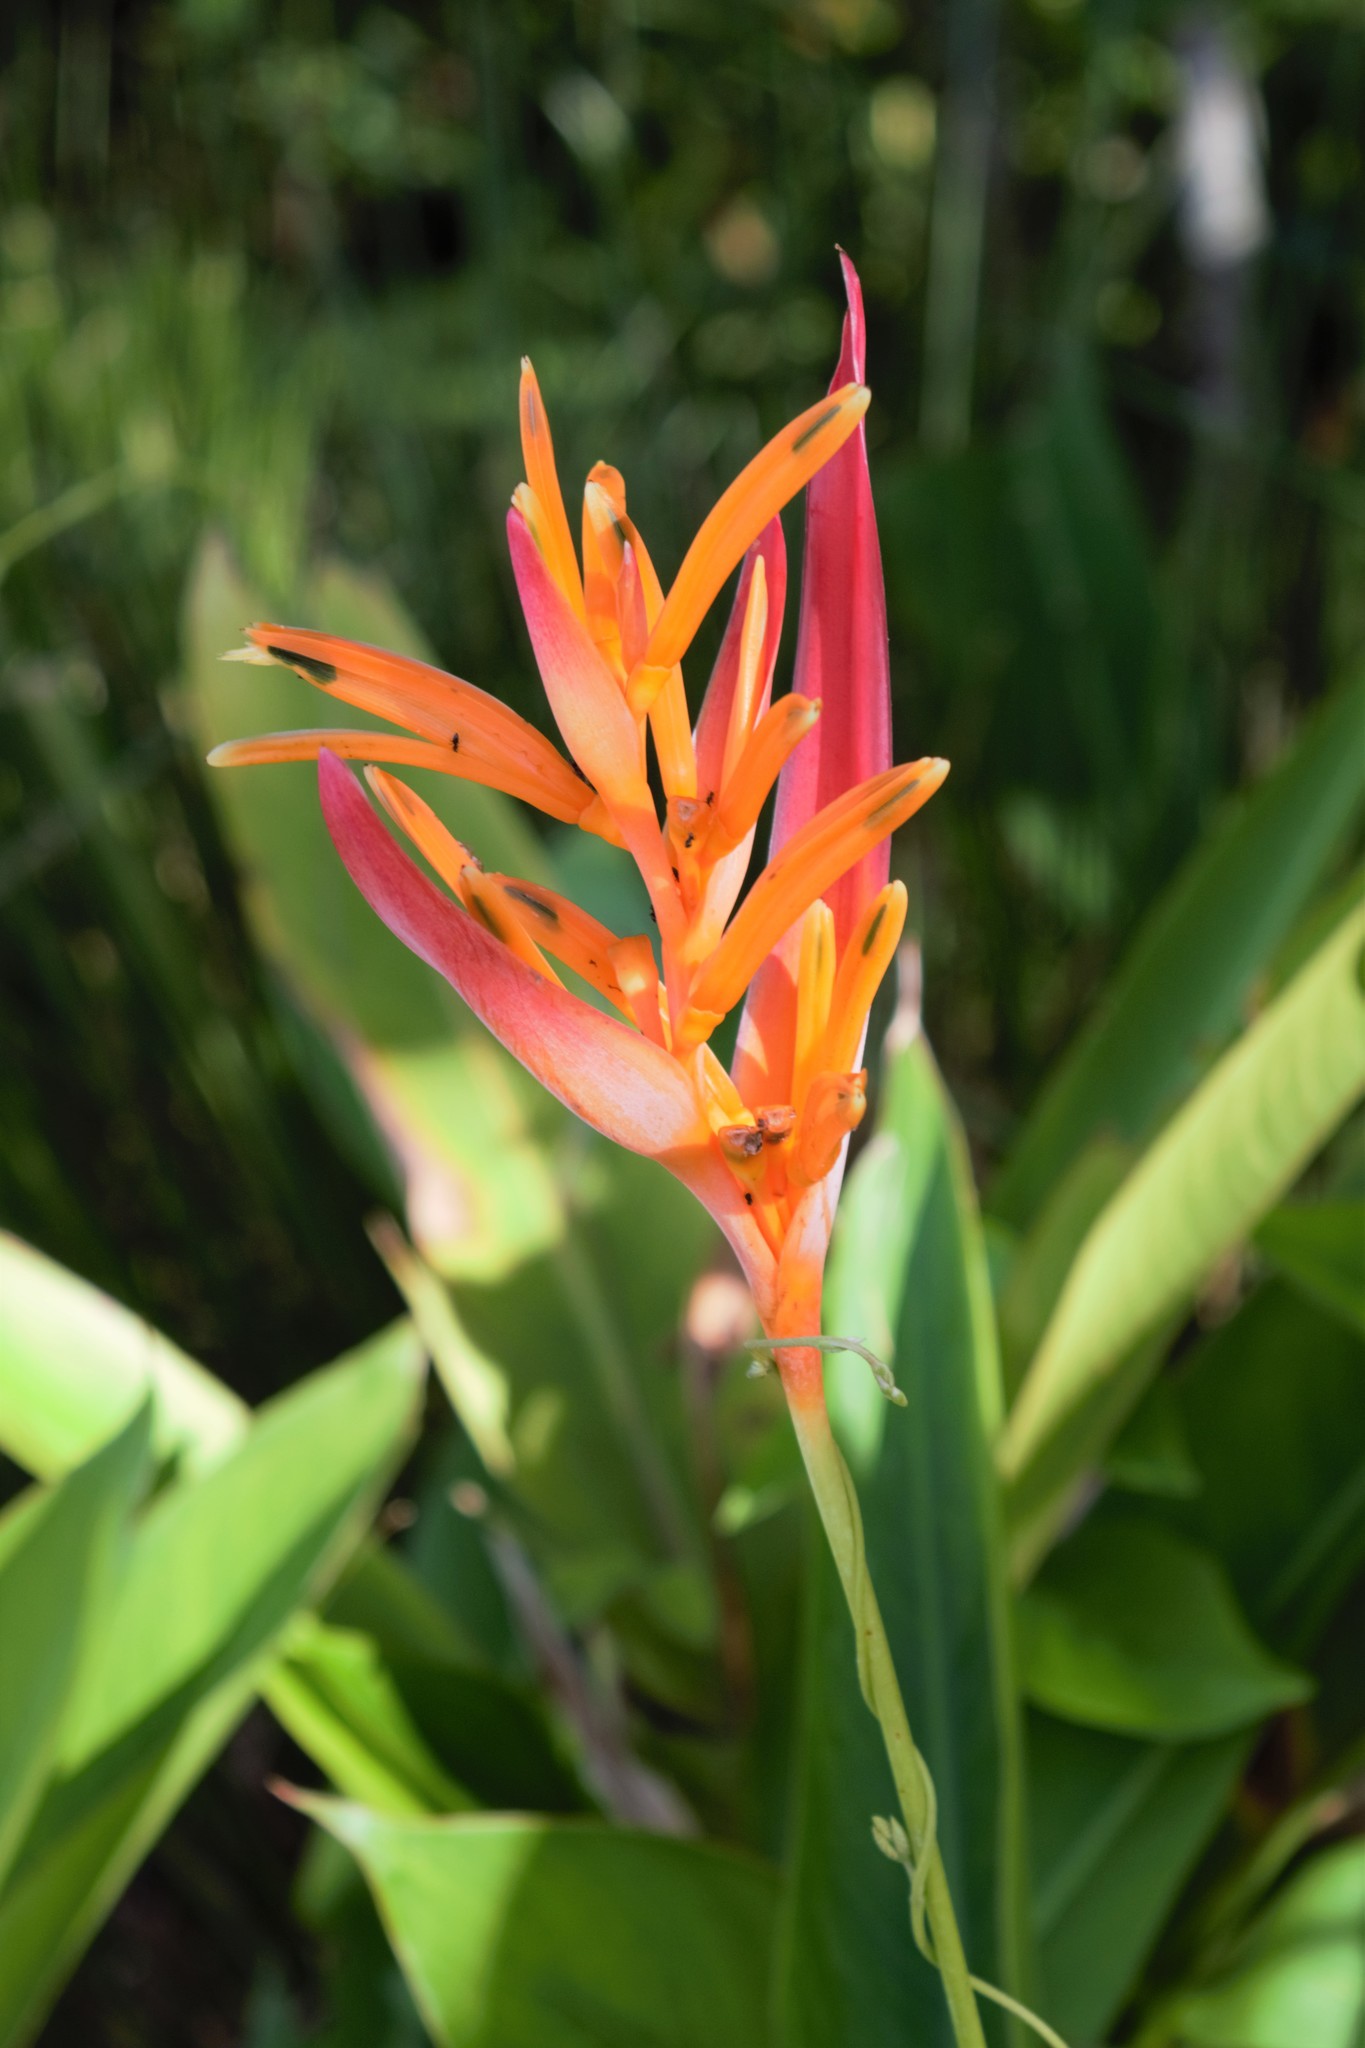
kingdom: Plantae
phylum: Tracheophyta
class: Liliopsida
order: Zingiberales
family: Heliconiaceae
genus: Heliconia
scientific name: Heliconia psittacorum
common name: Parrot's-flower
